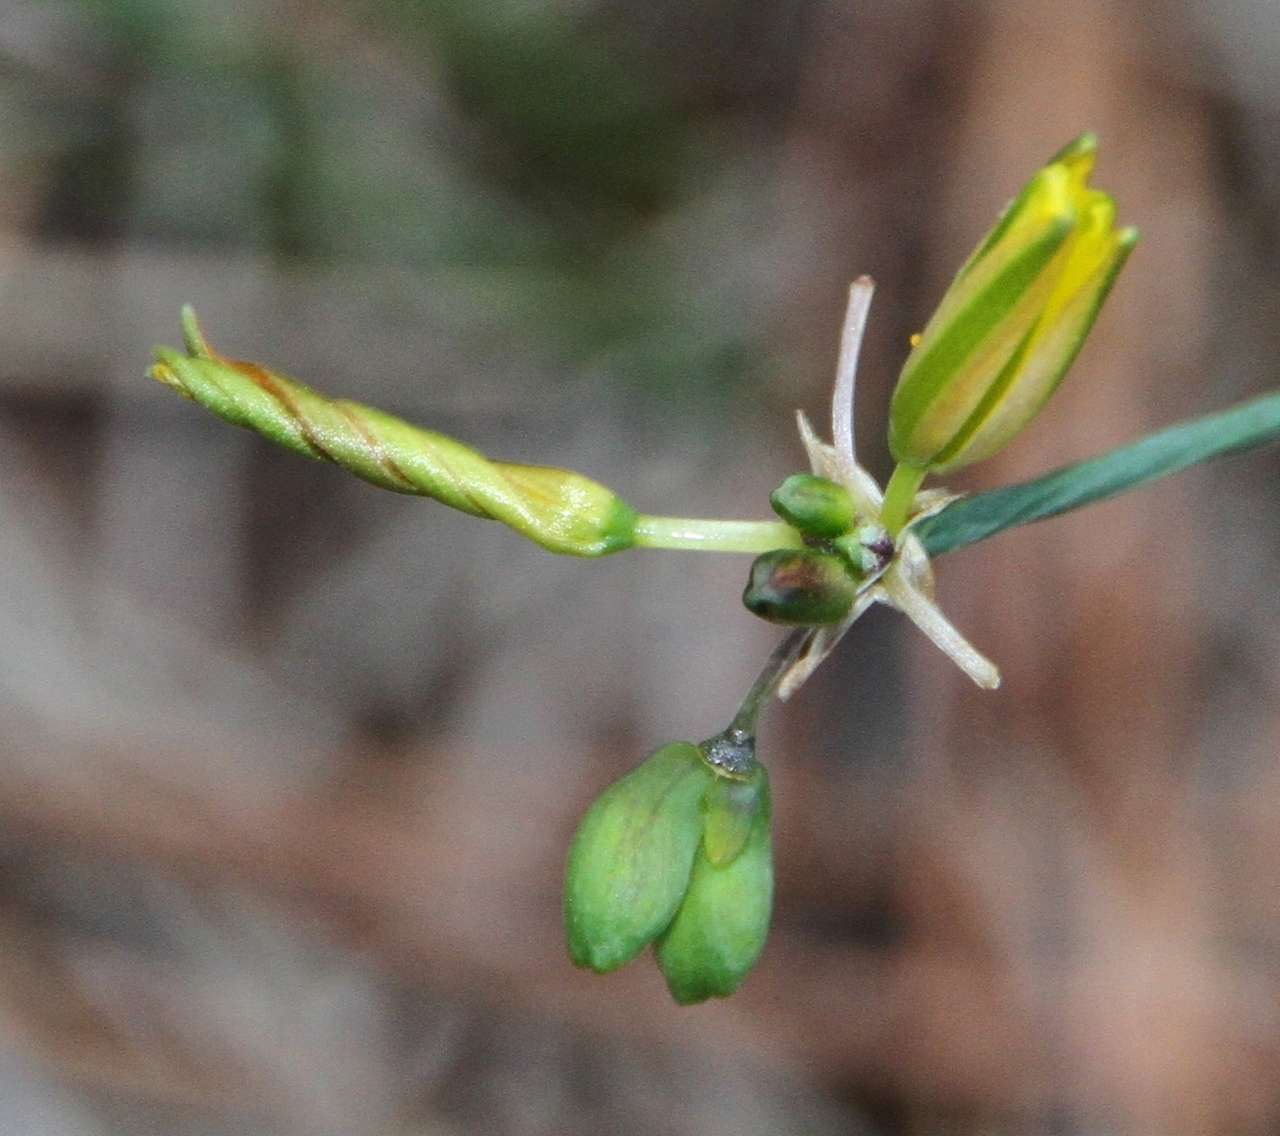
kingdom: Plantae
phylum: Tracheophyta
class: Liliopsida
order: Asparagales
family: Asphodelaceae
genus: Tricoryne
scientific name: Tricoryne elatior
